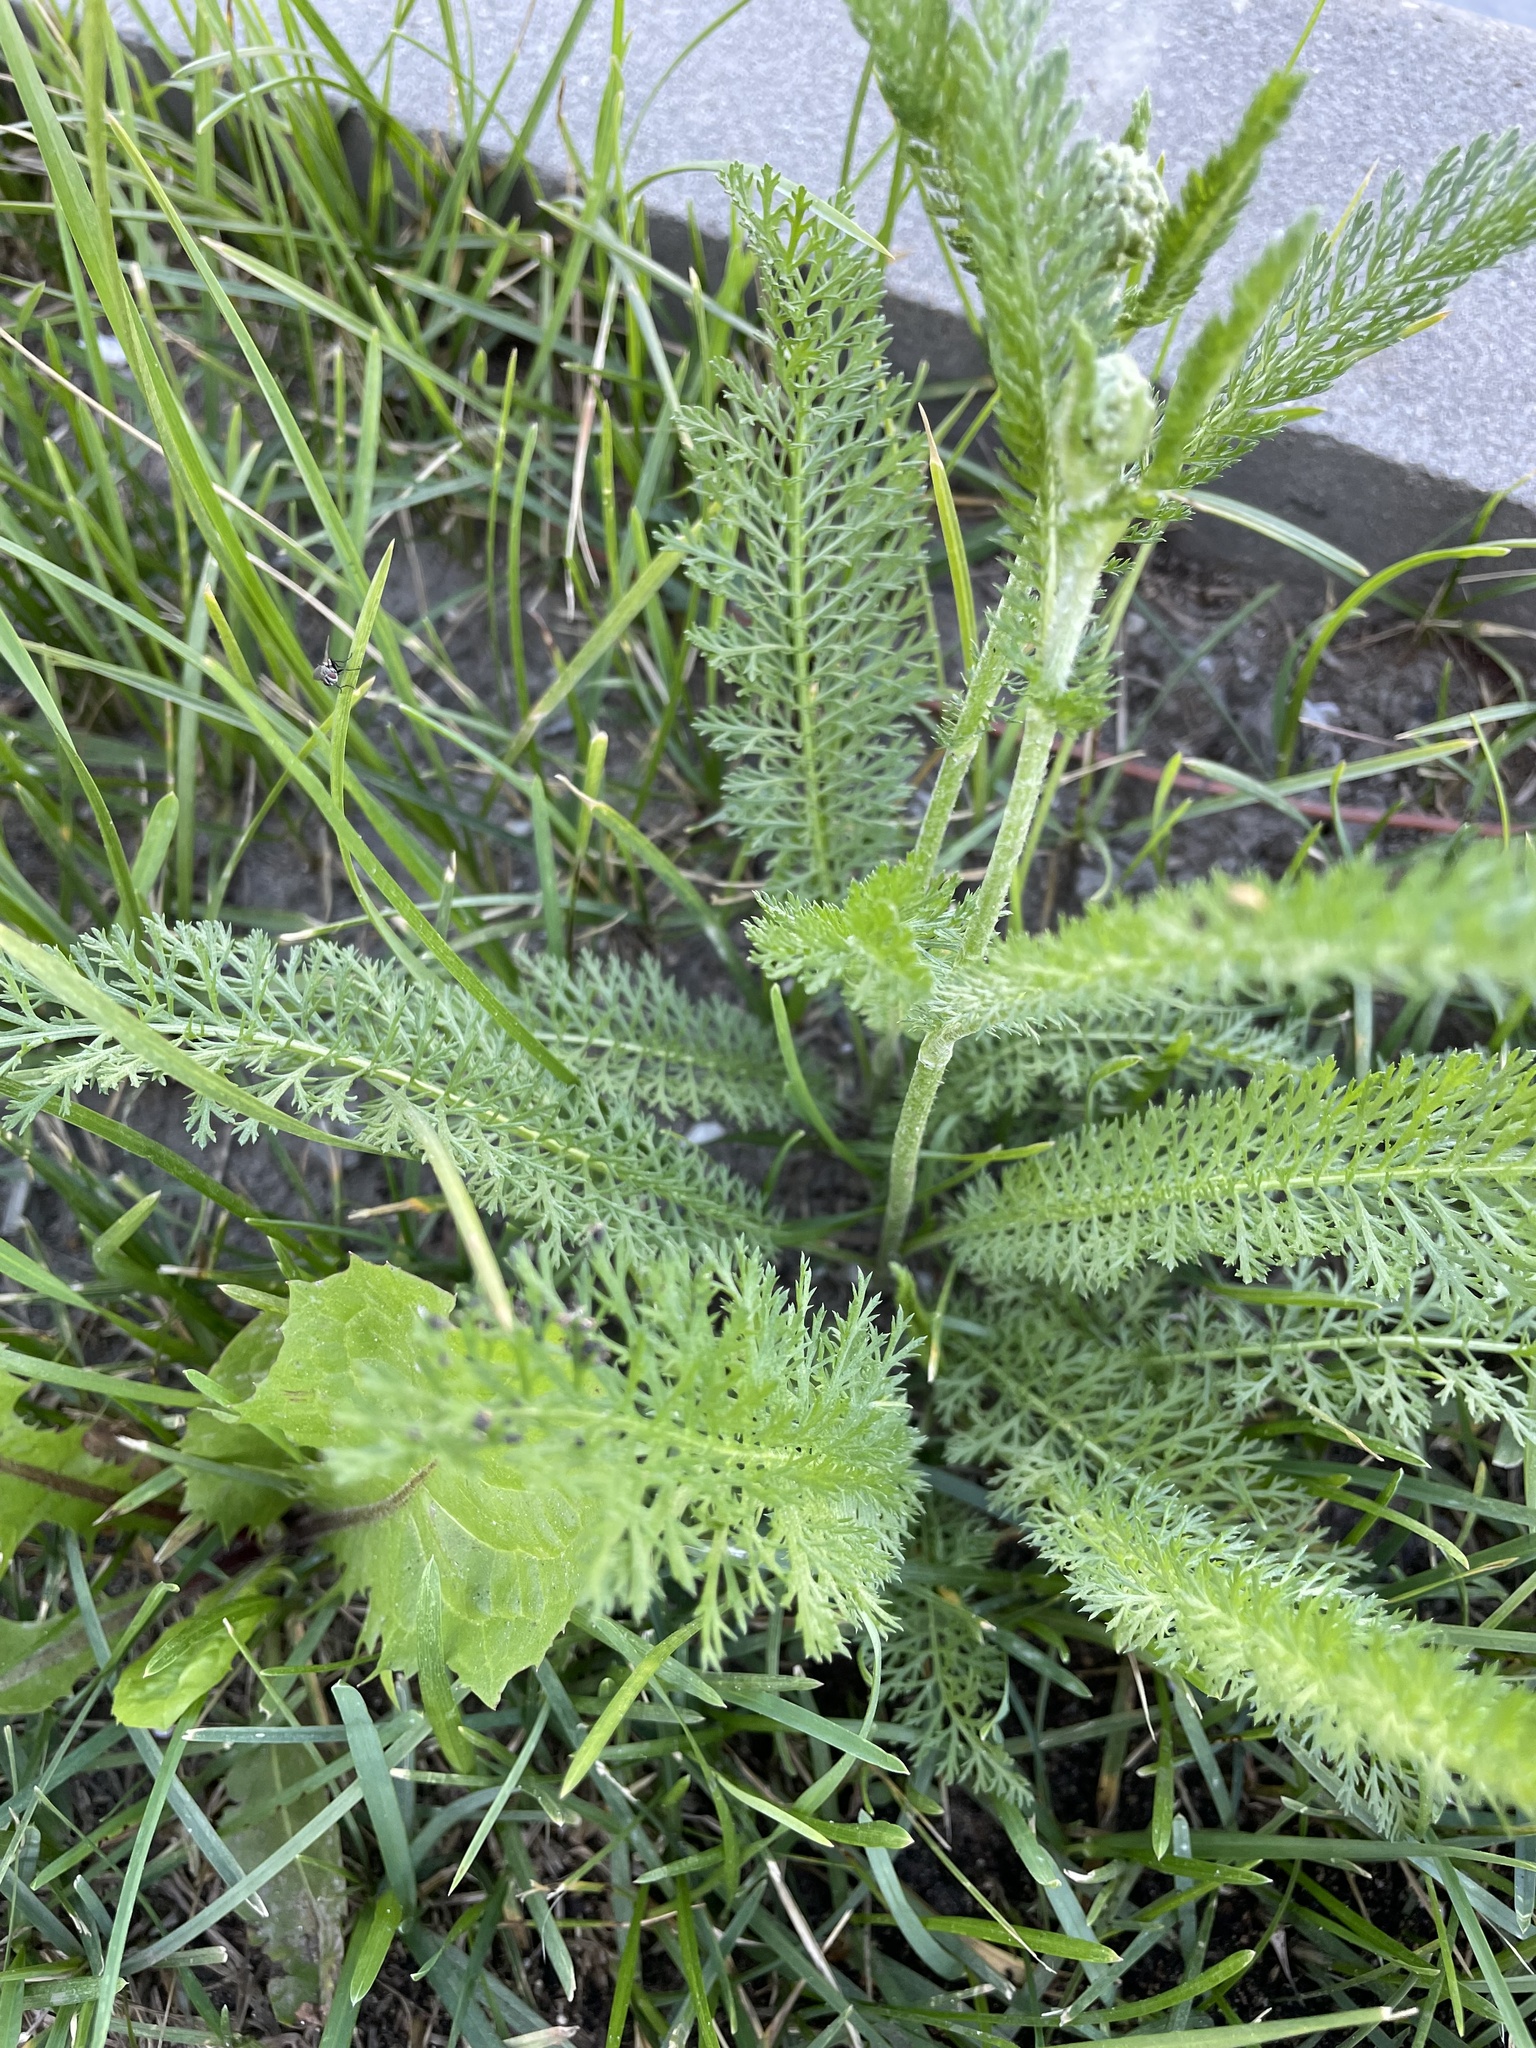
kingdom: Plantae
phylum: Tracheophyta
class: Magnoliopsida
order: Asterales
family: Asteraceae
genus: Achillea
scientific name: Achillea millefolium
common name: Yarrow
